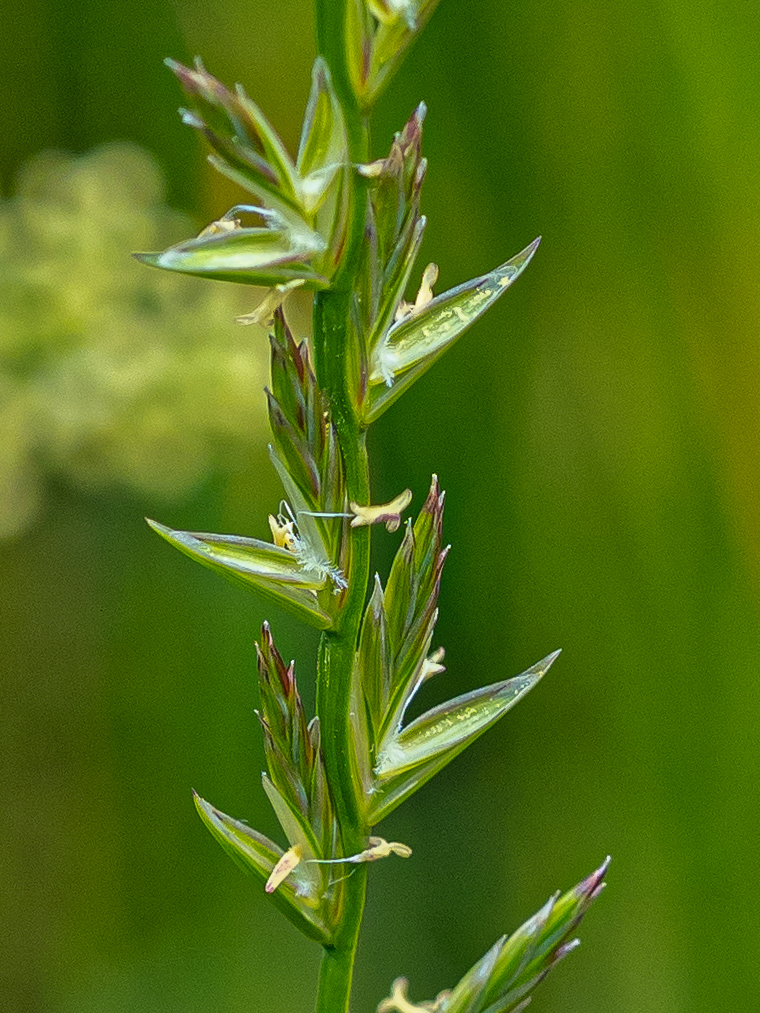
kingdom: Plantae
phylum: Tracheophyta
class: Liliopsida
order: Poales
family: Poaceae
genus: Lolium
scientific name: Lolium perenne
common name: Perennial ryegrass
